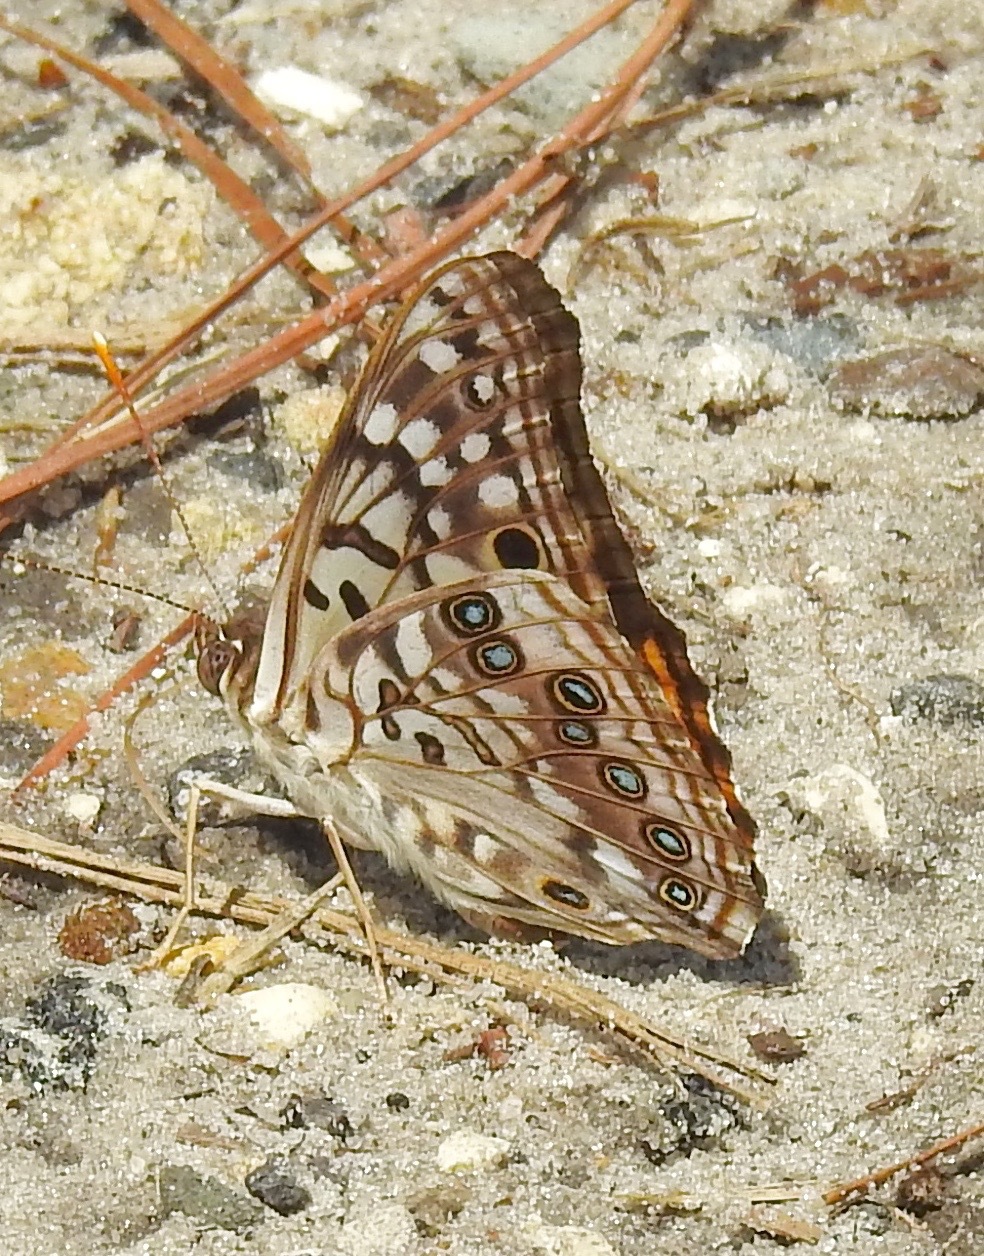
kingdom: Animalia
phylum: Arthropoda
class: Insecta
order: Lepidoptera
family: Nymphalidae
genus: Asterocampa
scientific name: Asterocampa celtis
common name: Hackberry emperor
